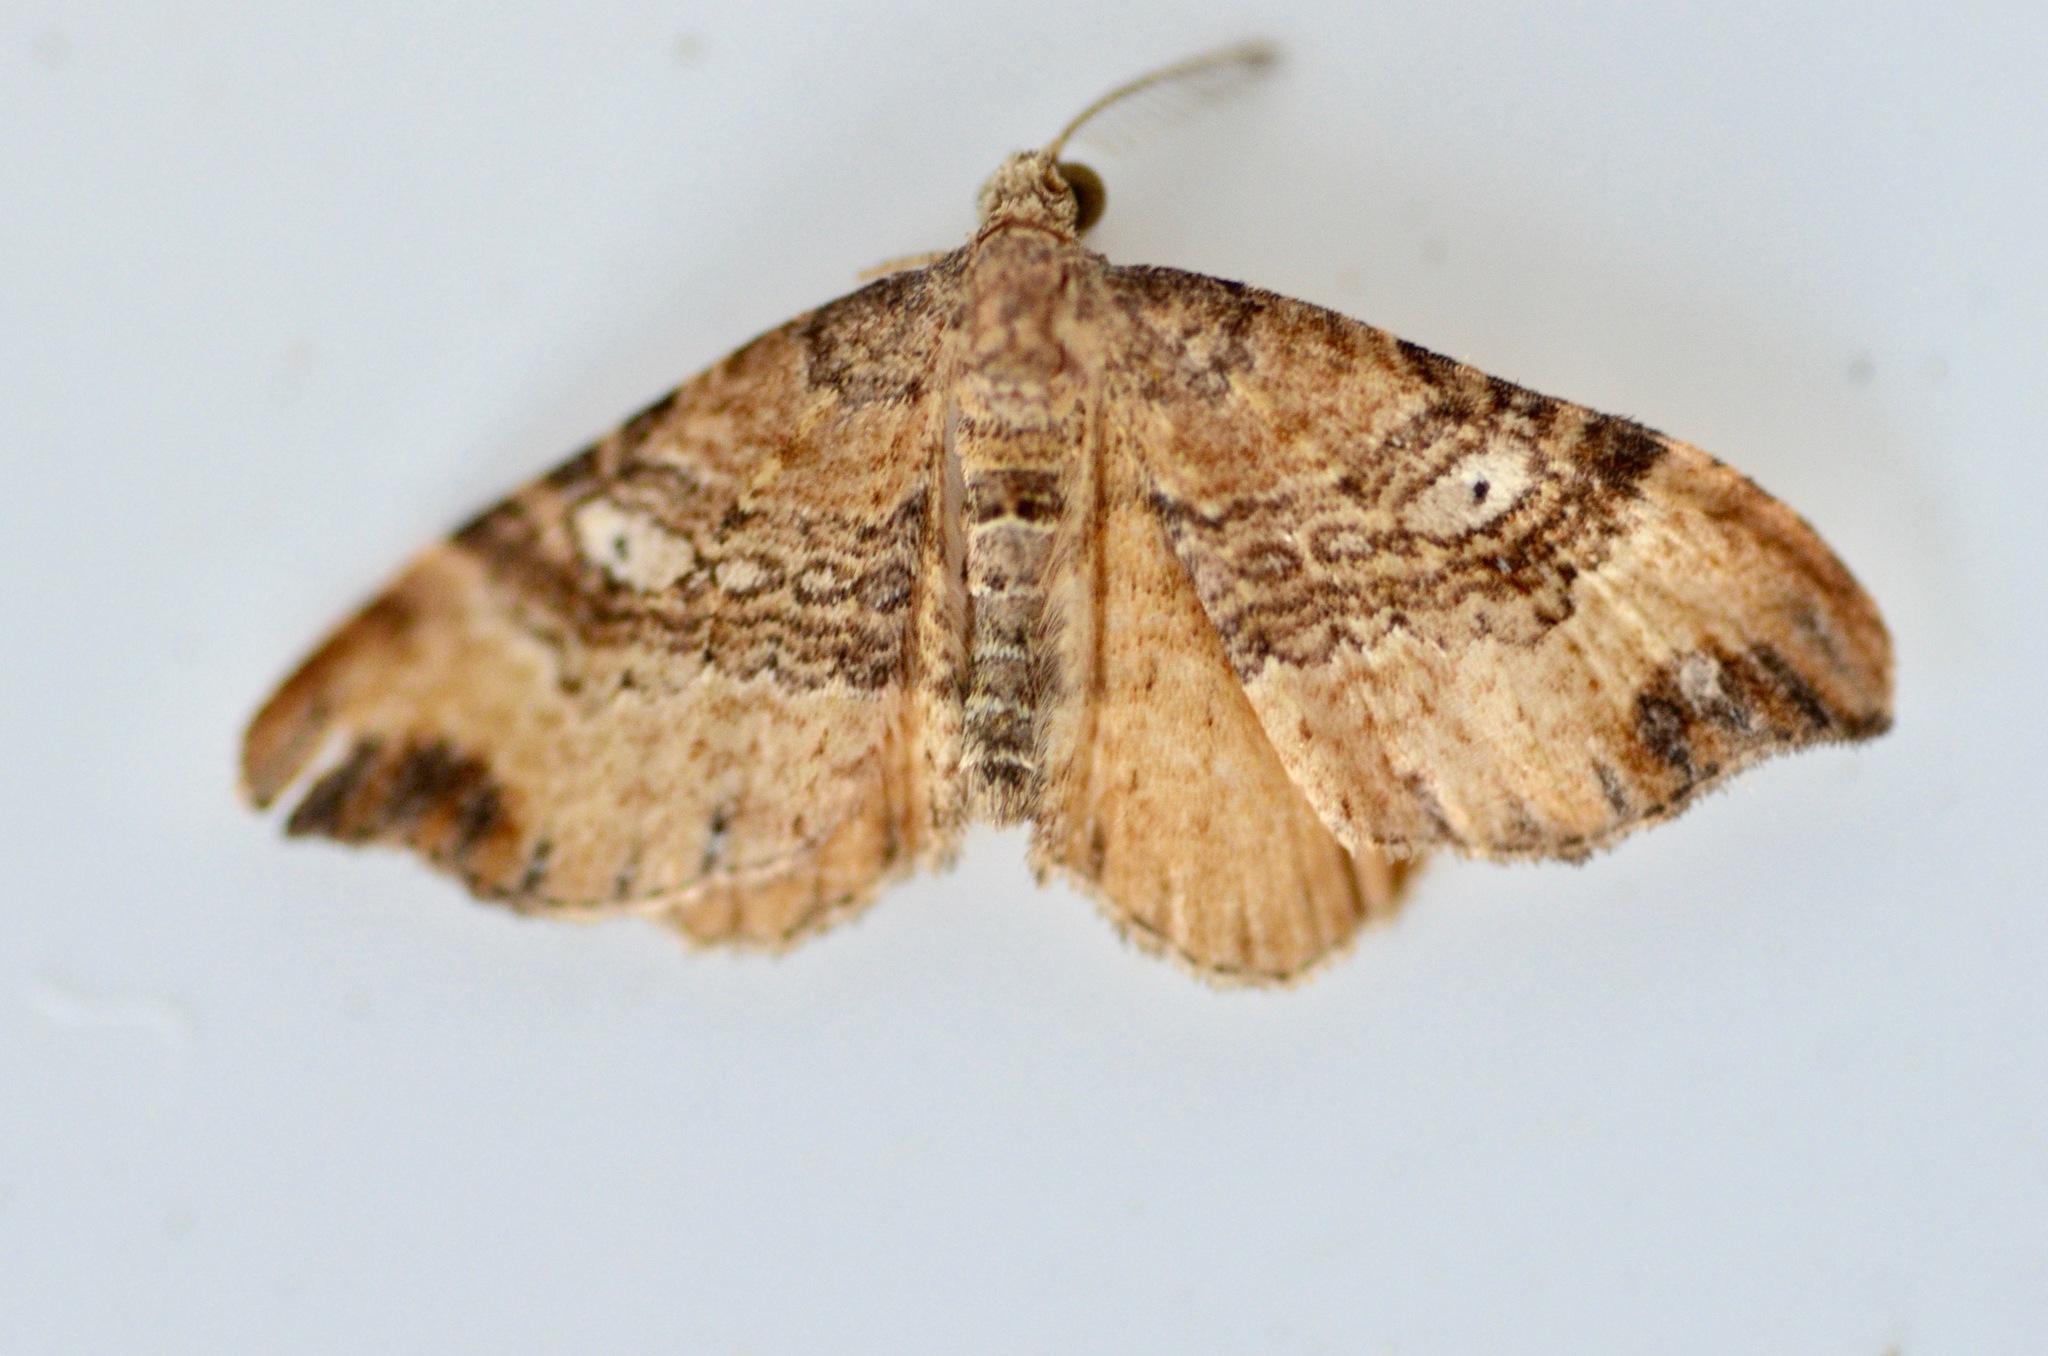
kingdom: Animalia
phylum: Arthropoda
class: Insecta
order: Lepidoptera
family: Geometridae
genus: Homodotis
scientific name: Homodotis megaspilata
